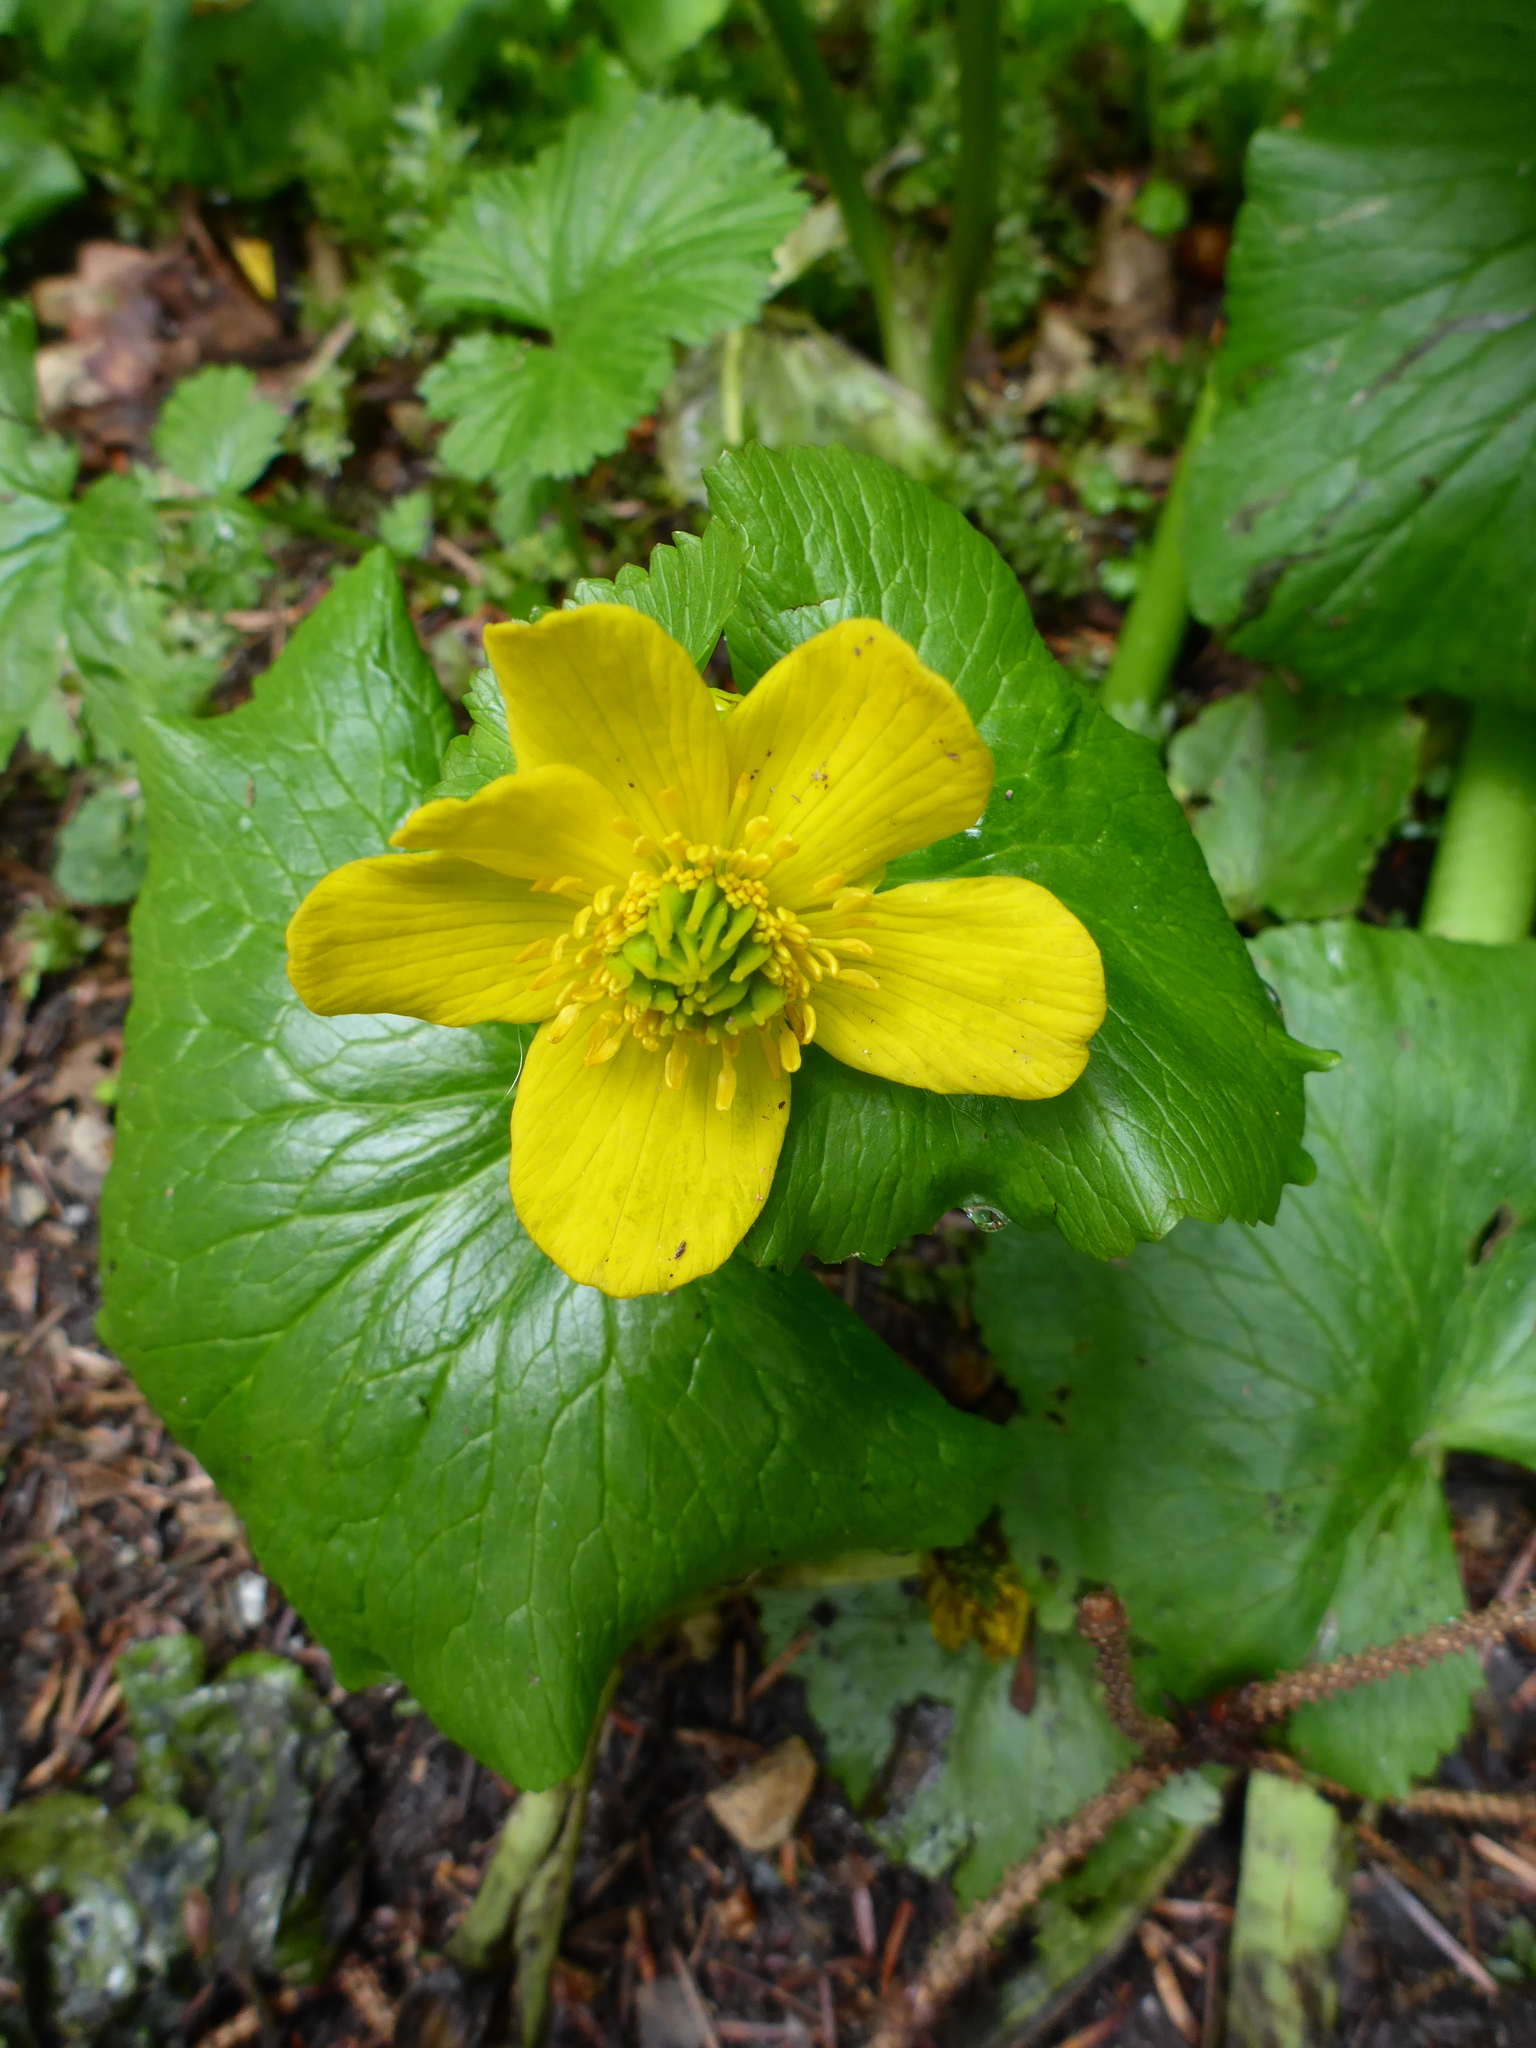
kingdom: Plantae
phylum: Tracheophyta
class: Magnoliopsida
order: Ranunculales
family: Ranunculaceae
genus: Caltha
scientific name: Caltha palustris
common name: Marsh marigold
